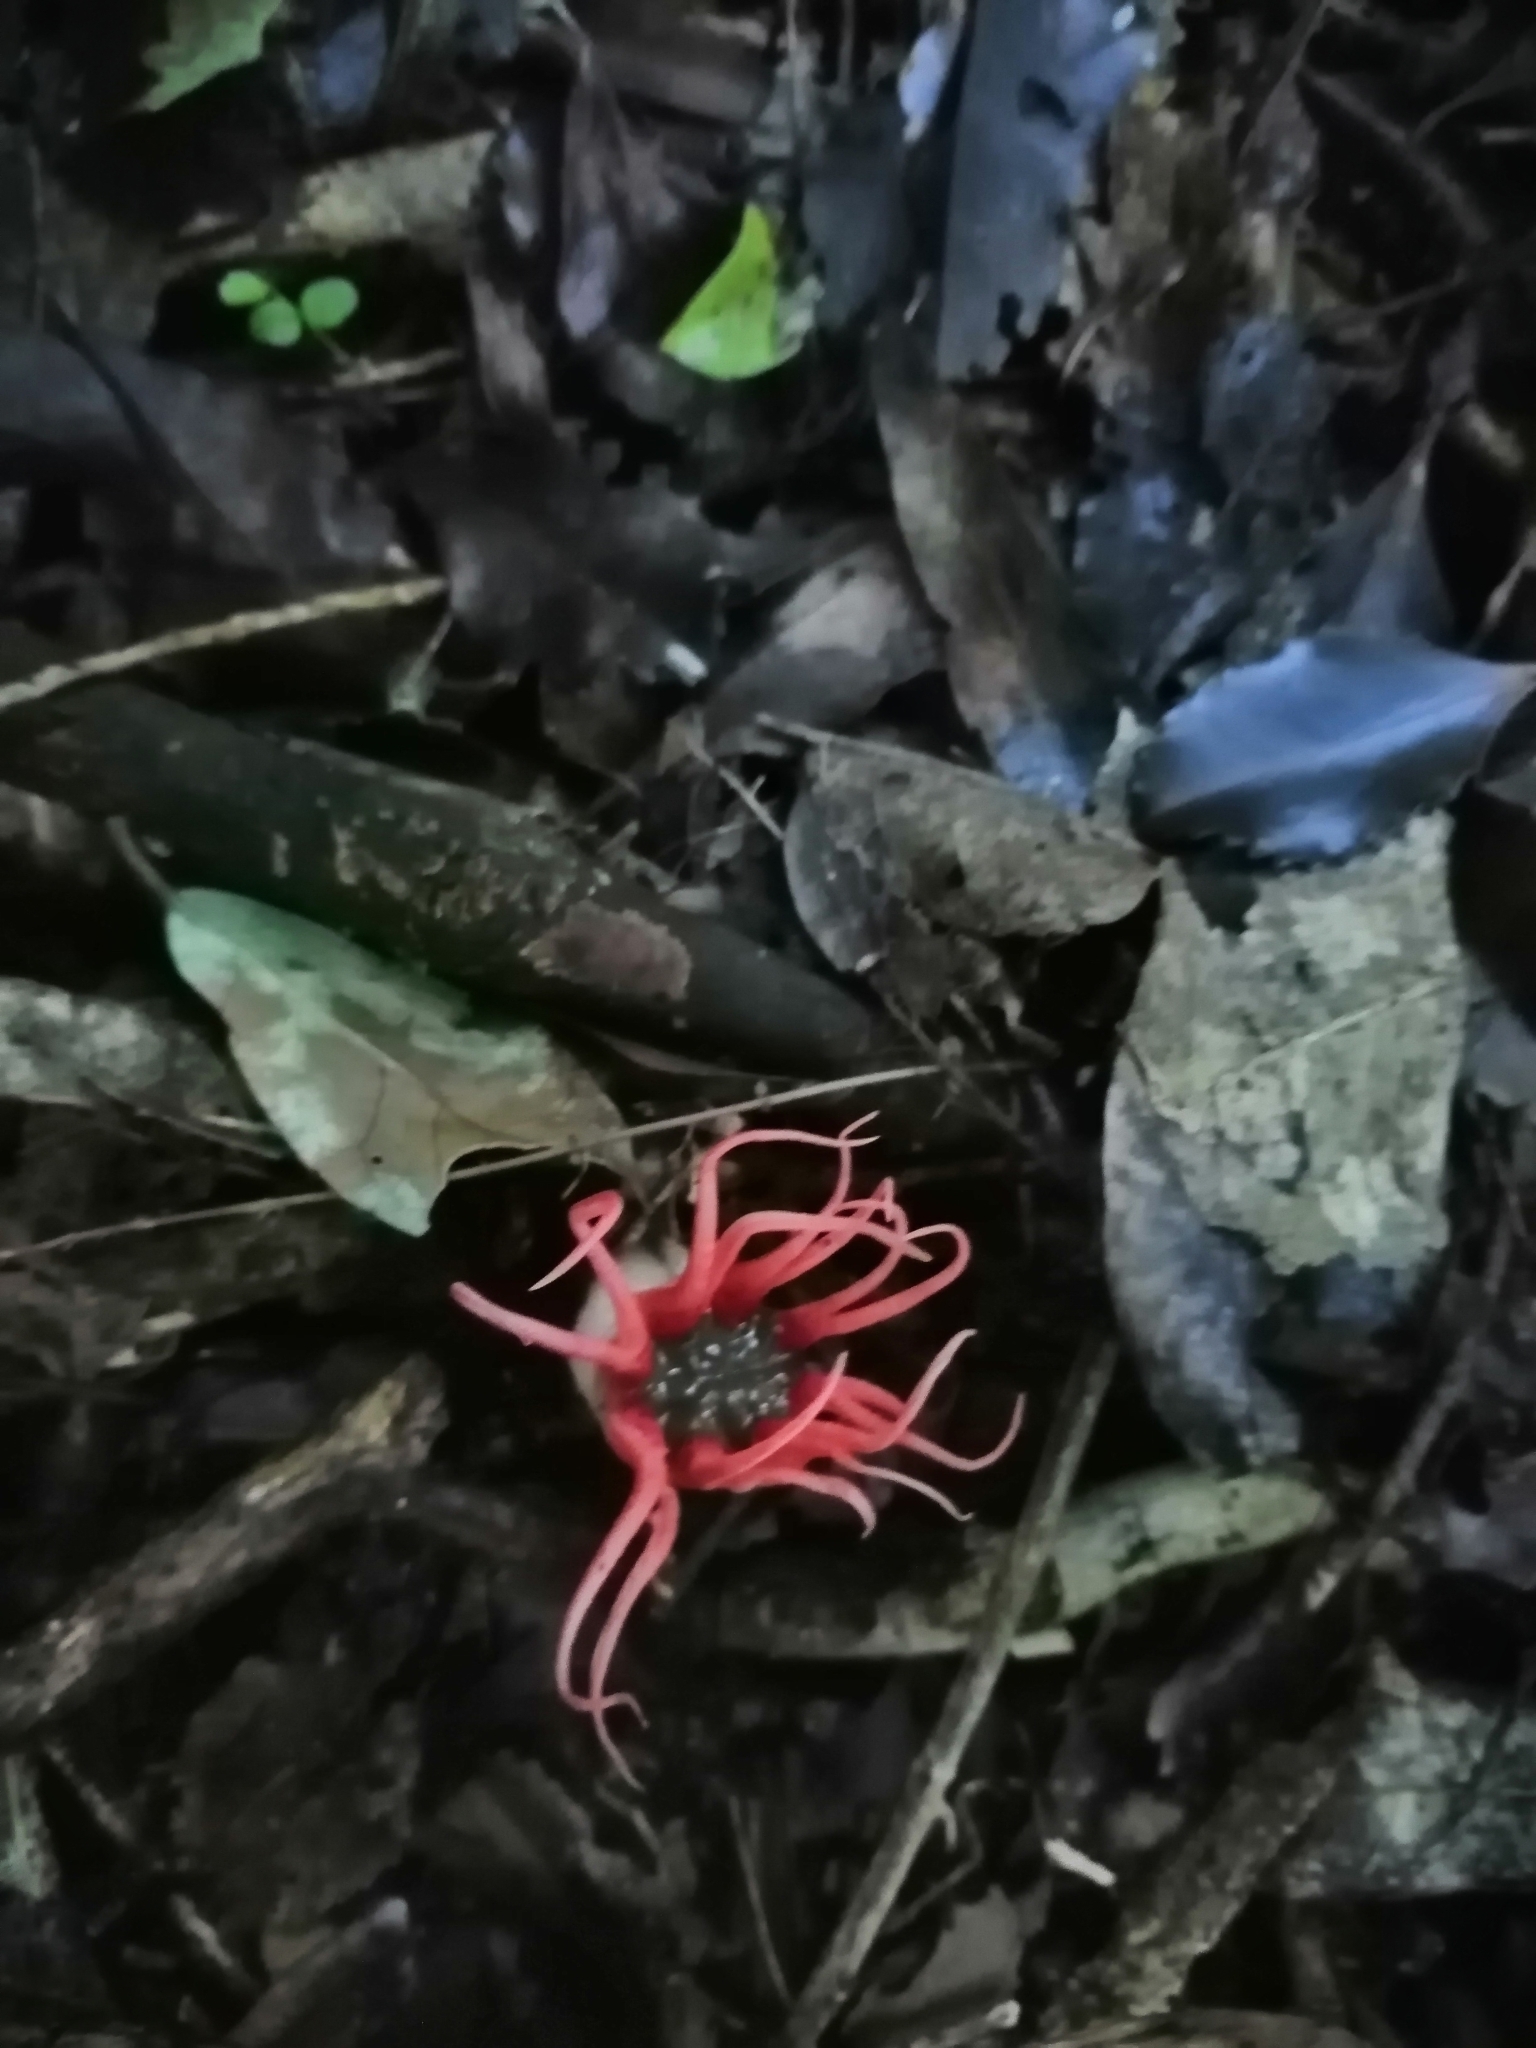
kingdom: Fungi
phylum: Basidiomycota
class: Agaricomycetes
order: Phallales
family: Phallaceae
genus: Aseroe
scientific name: Aseroe rubra
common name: Starfish fungus
